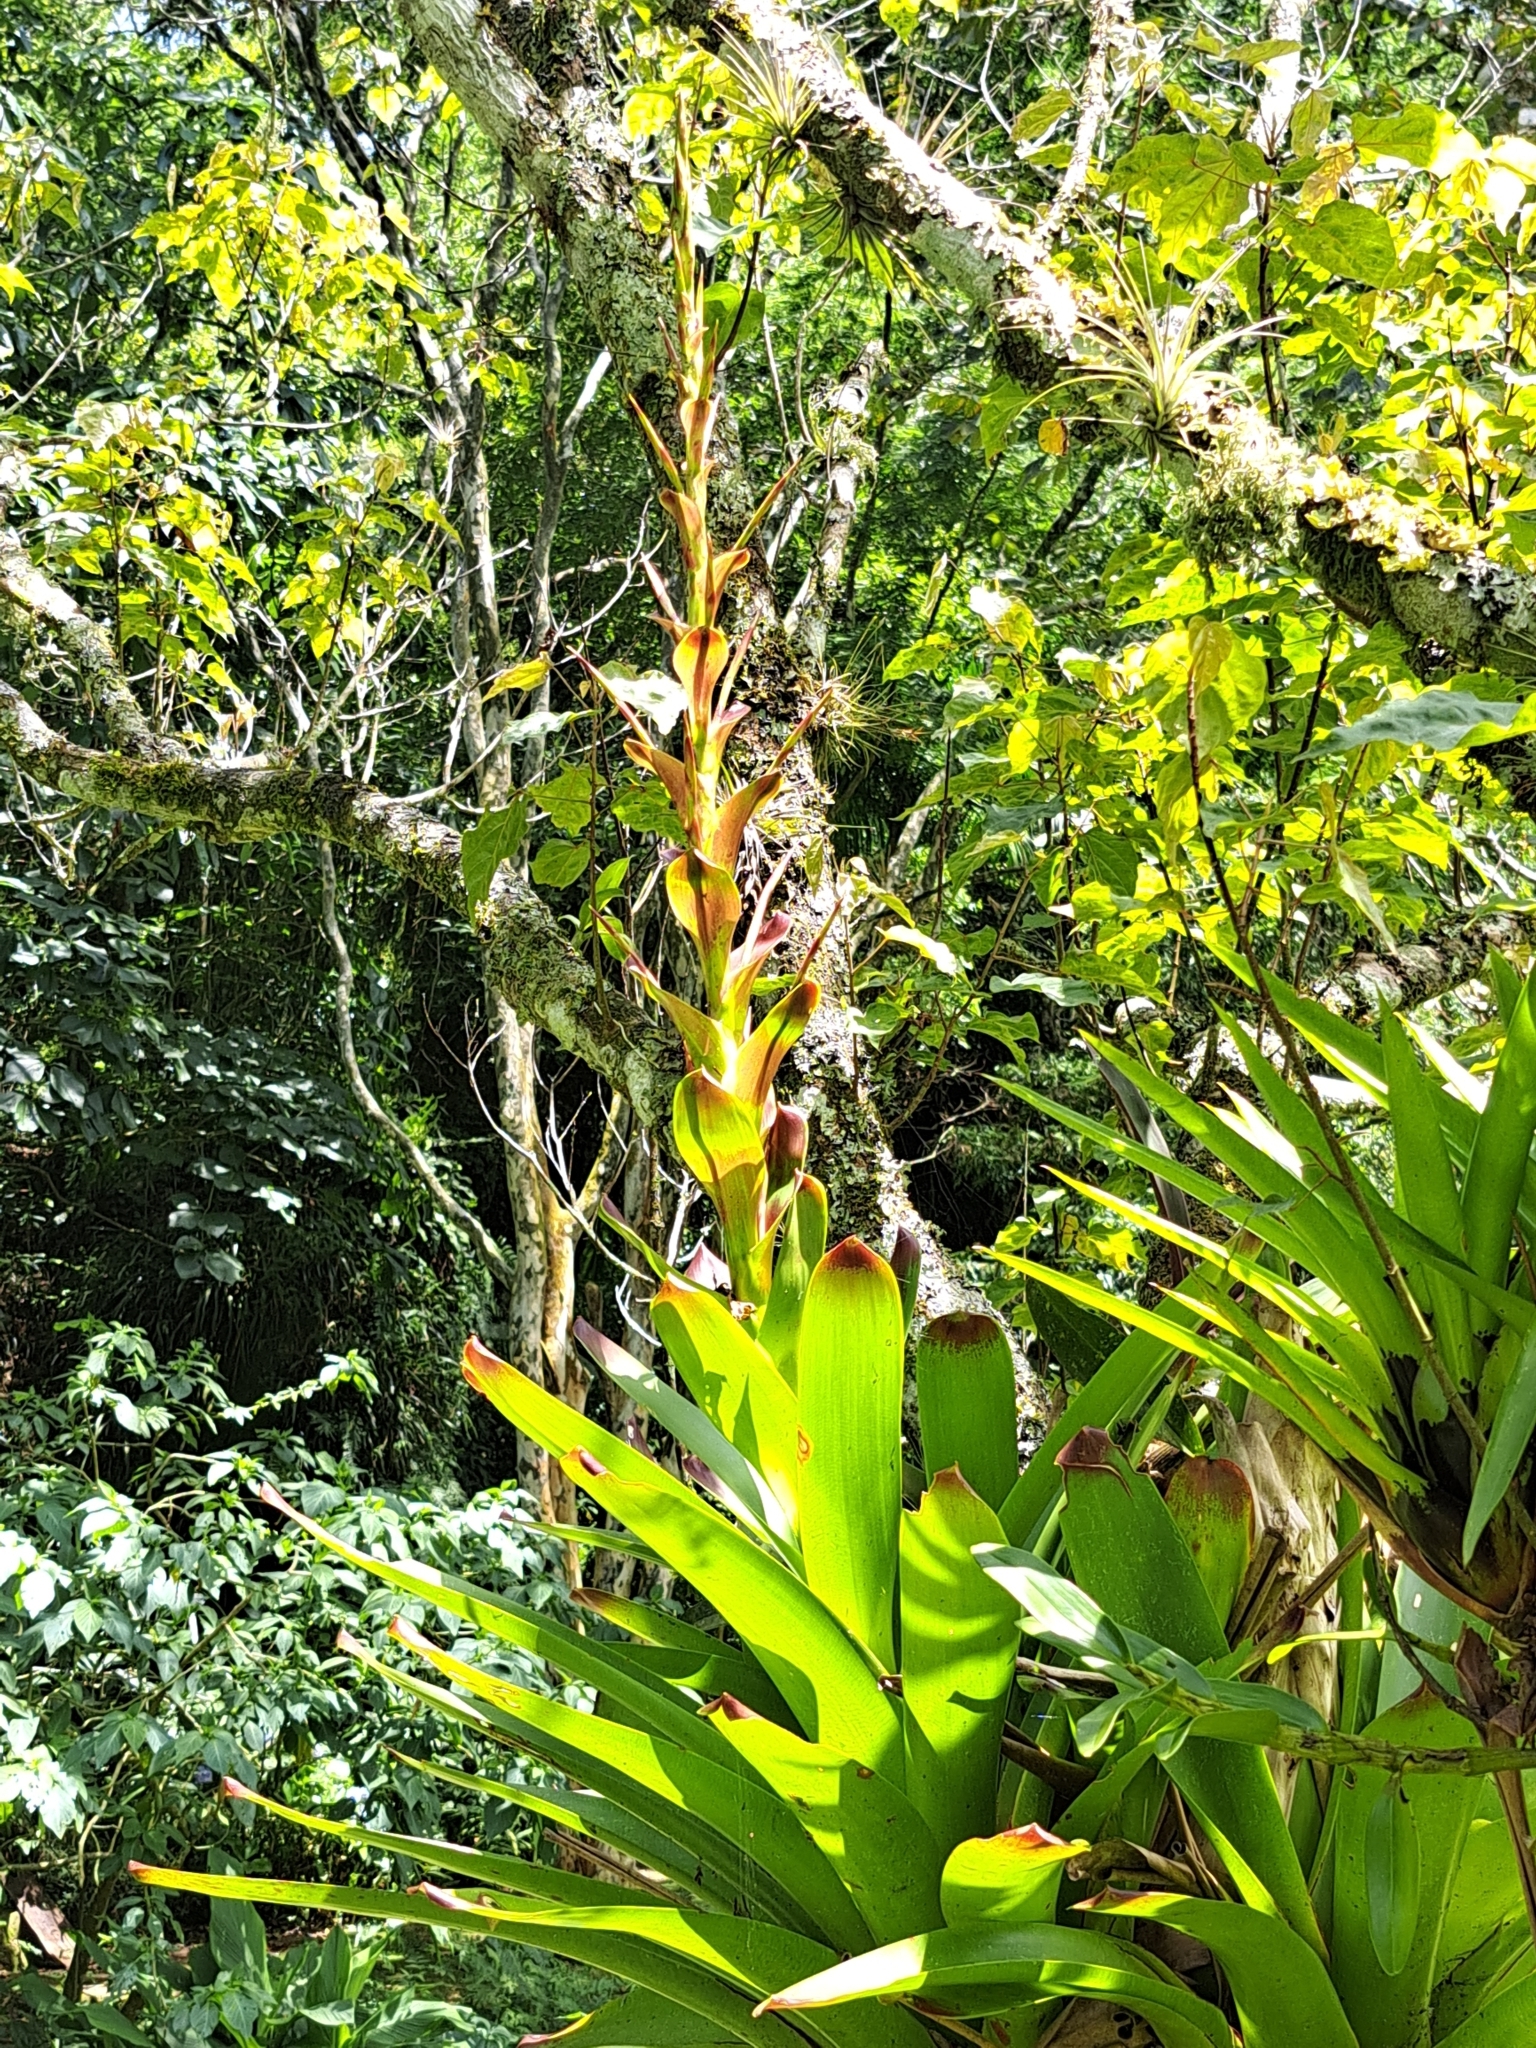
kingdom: Plantae
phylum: Tracheophyta
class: Liliopsida
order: Poales
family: Bromeliaceae
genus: Vriesea
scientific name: Vriesea philippocoburgi
